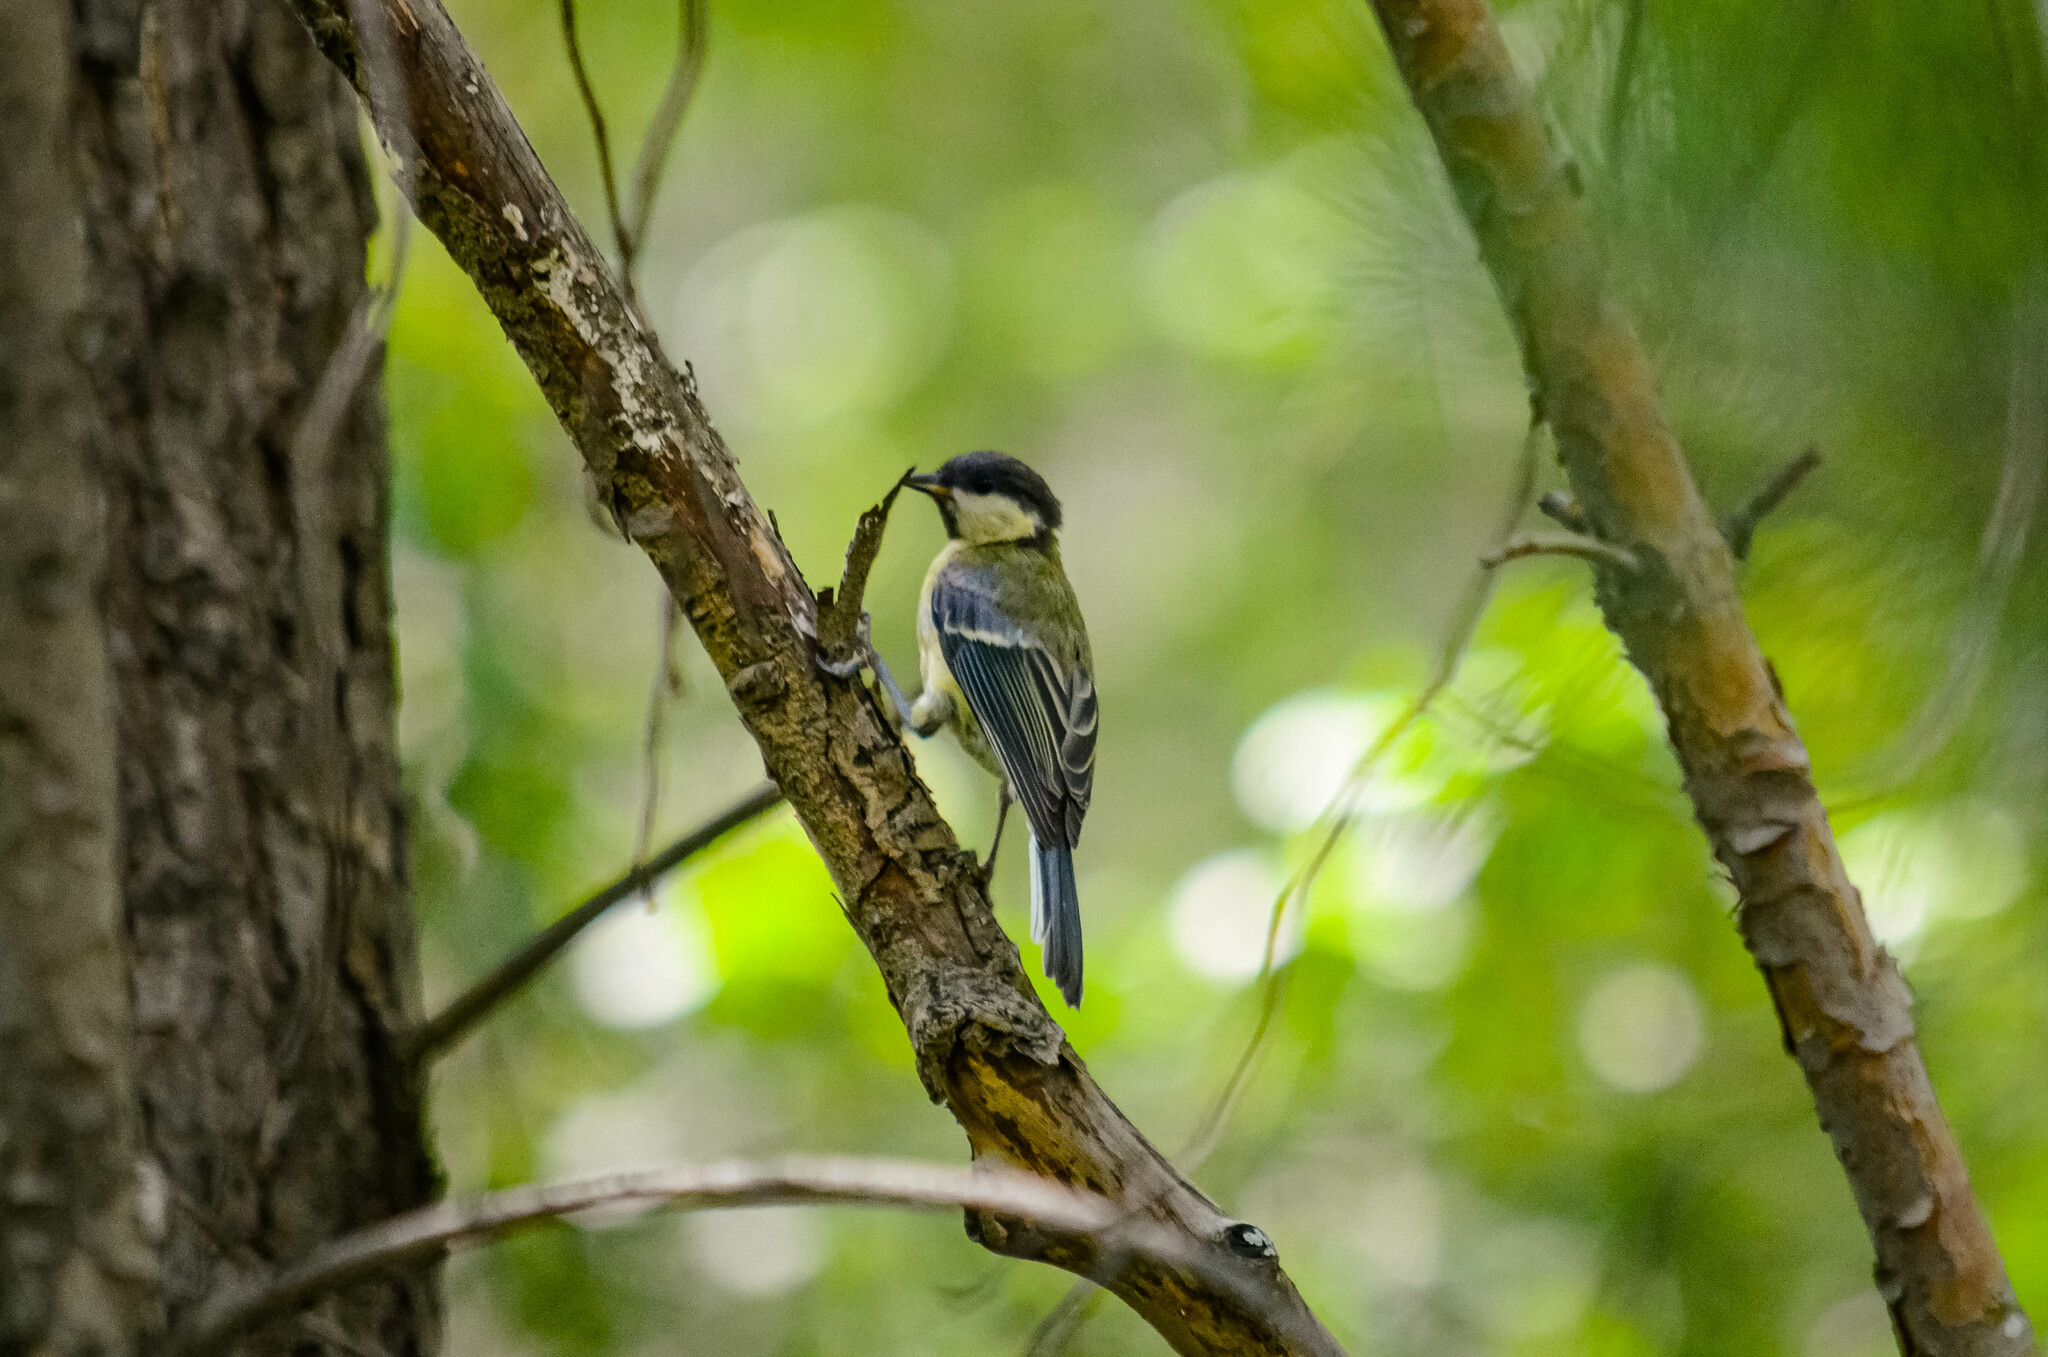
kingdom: Animalia
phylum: Chordata
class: Aves
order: Passeriformes
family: Paridae
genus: Parus
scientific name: Parus major
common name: Great tit
